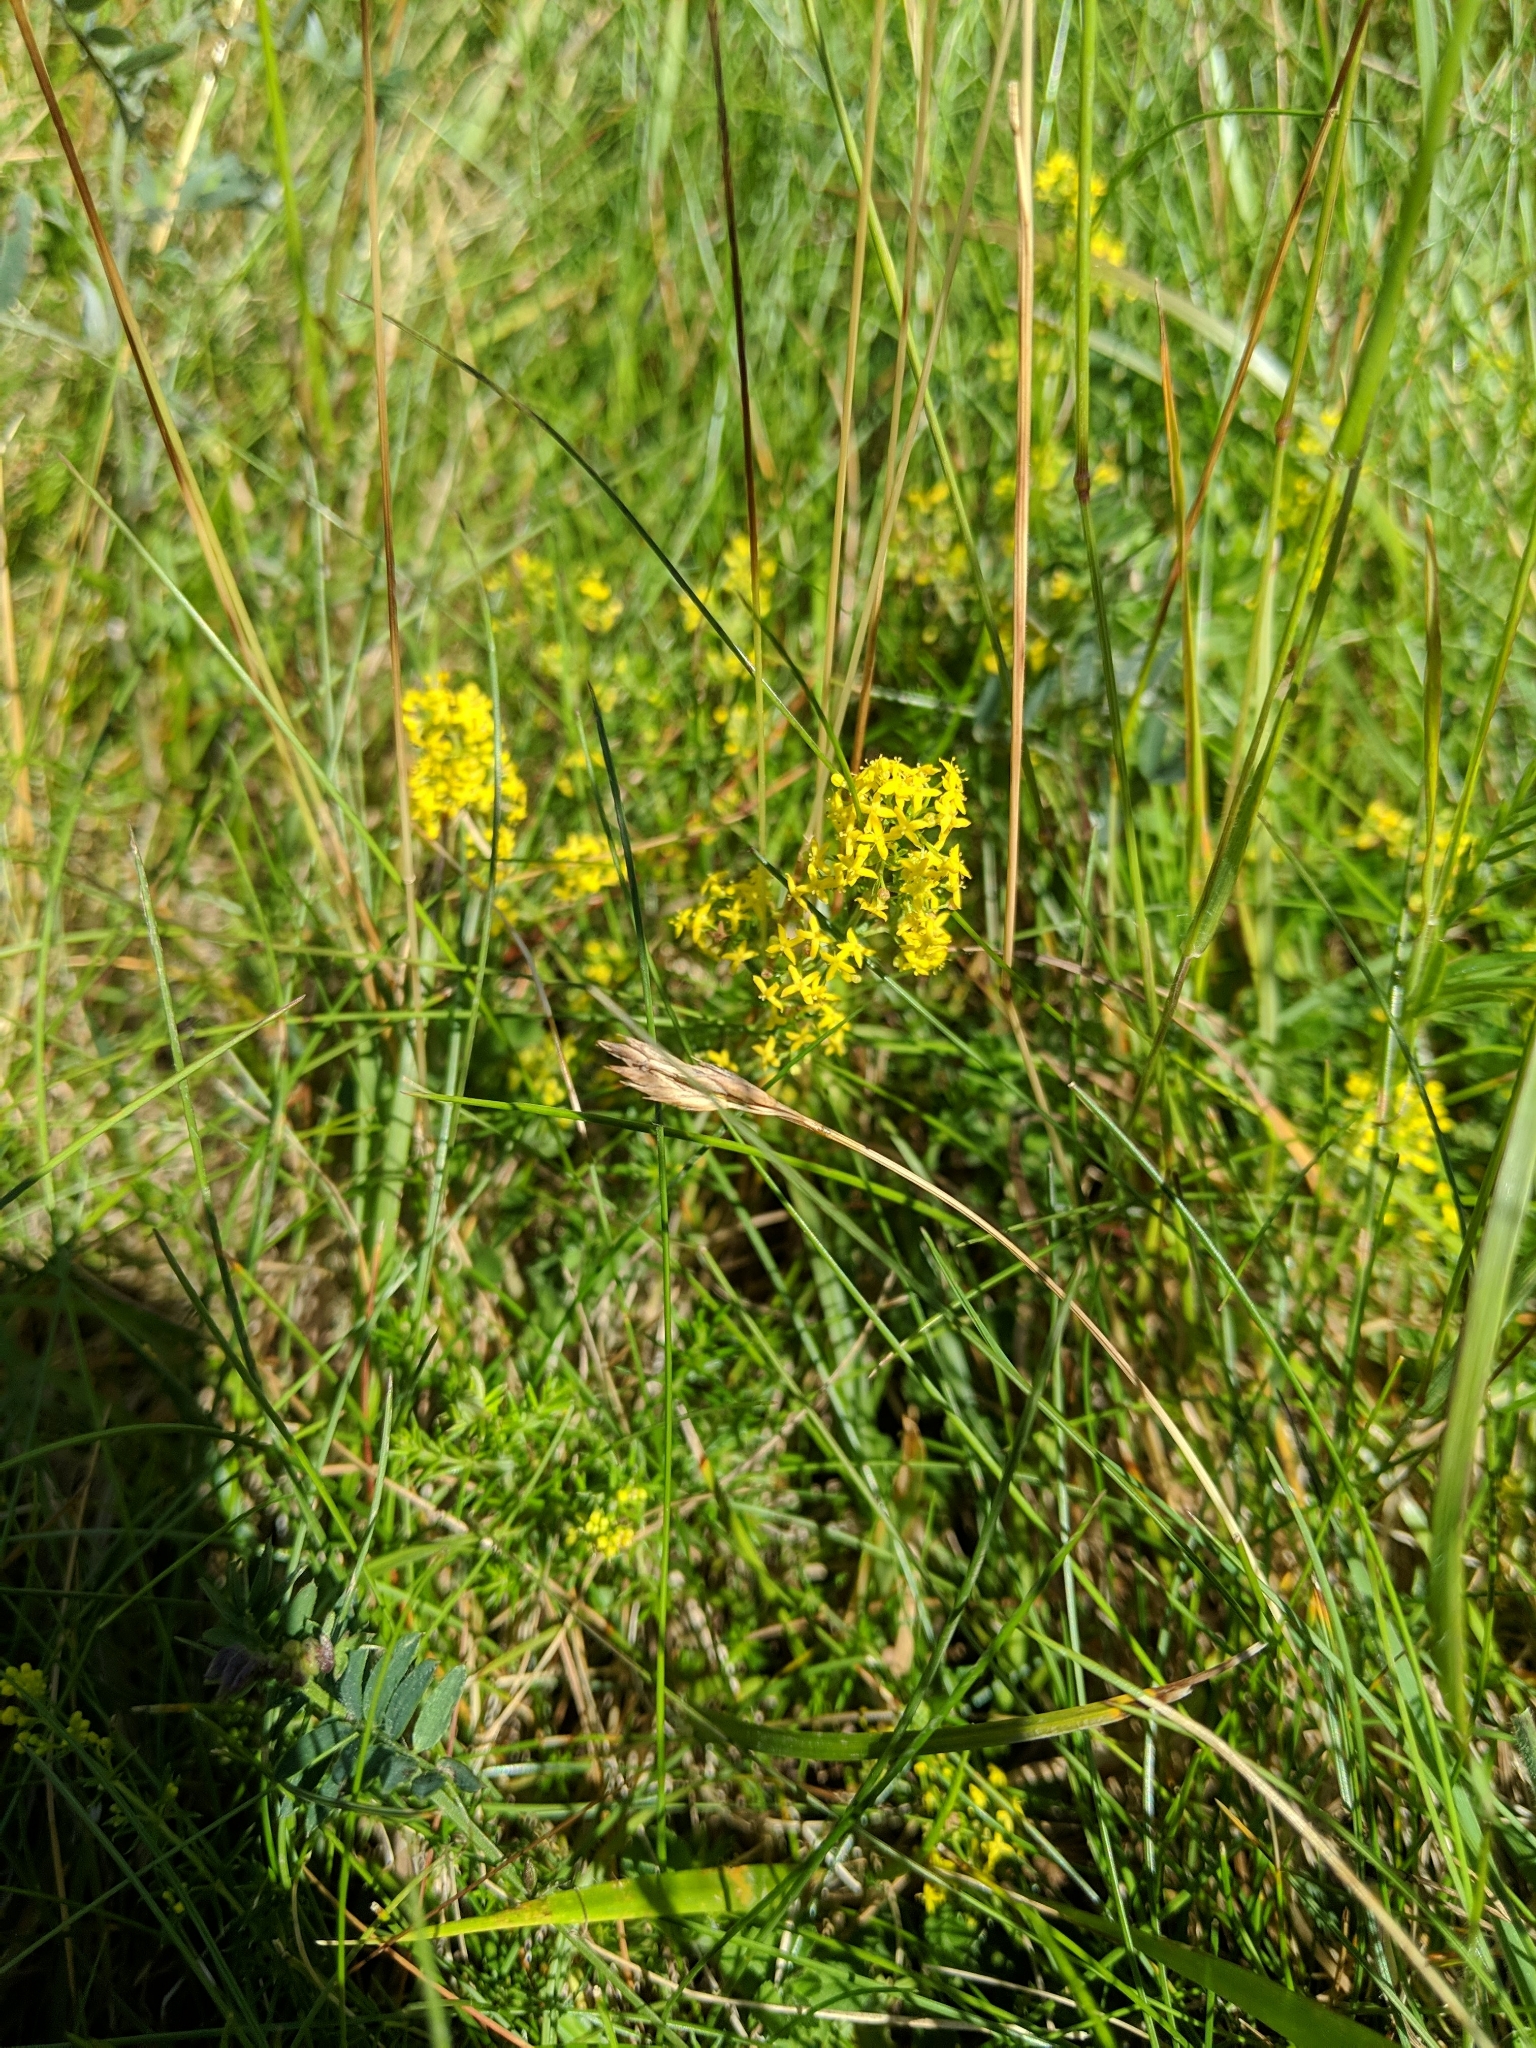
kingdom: Plantae
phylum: Tracheophyta
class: Magnoliopsida
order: Gentianales
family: Rubiaceae
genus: Galium
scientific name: Galium verum
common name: Lady's bedstraw
